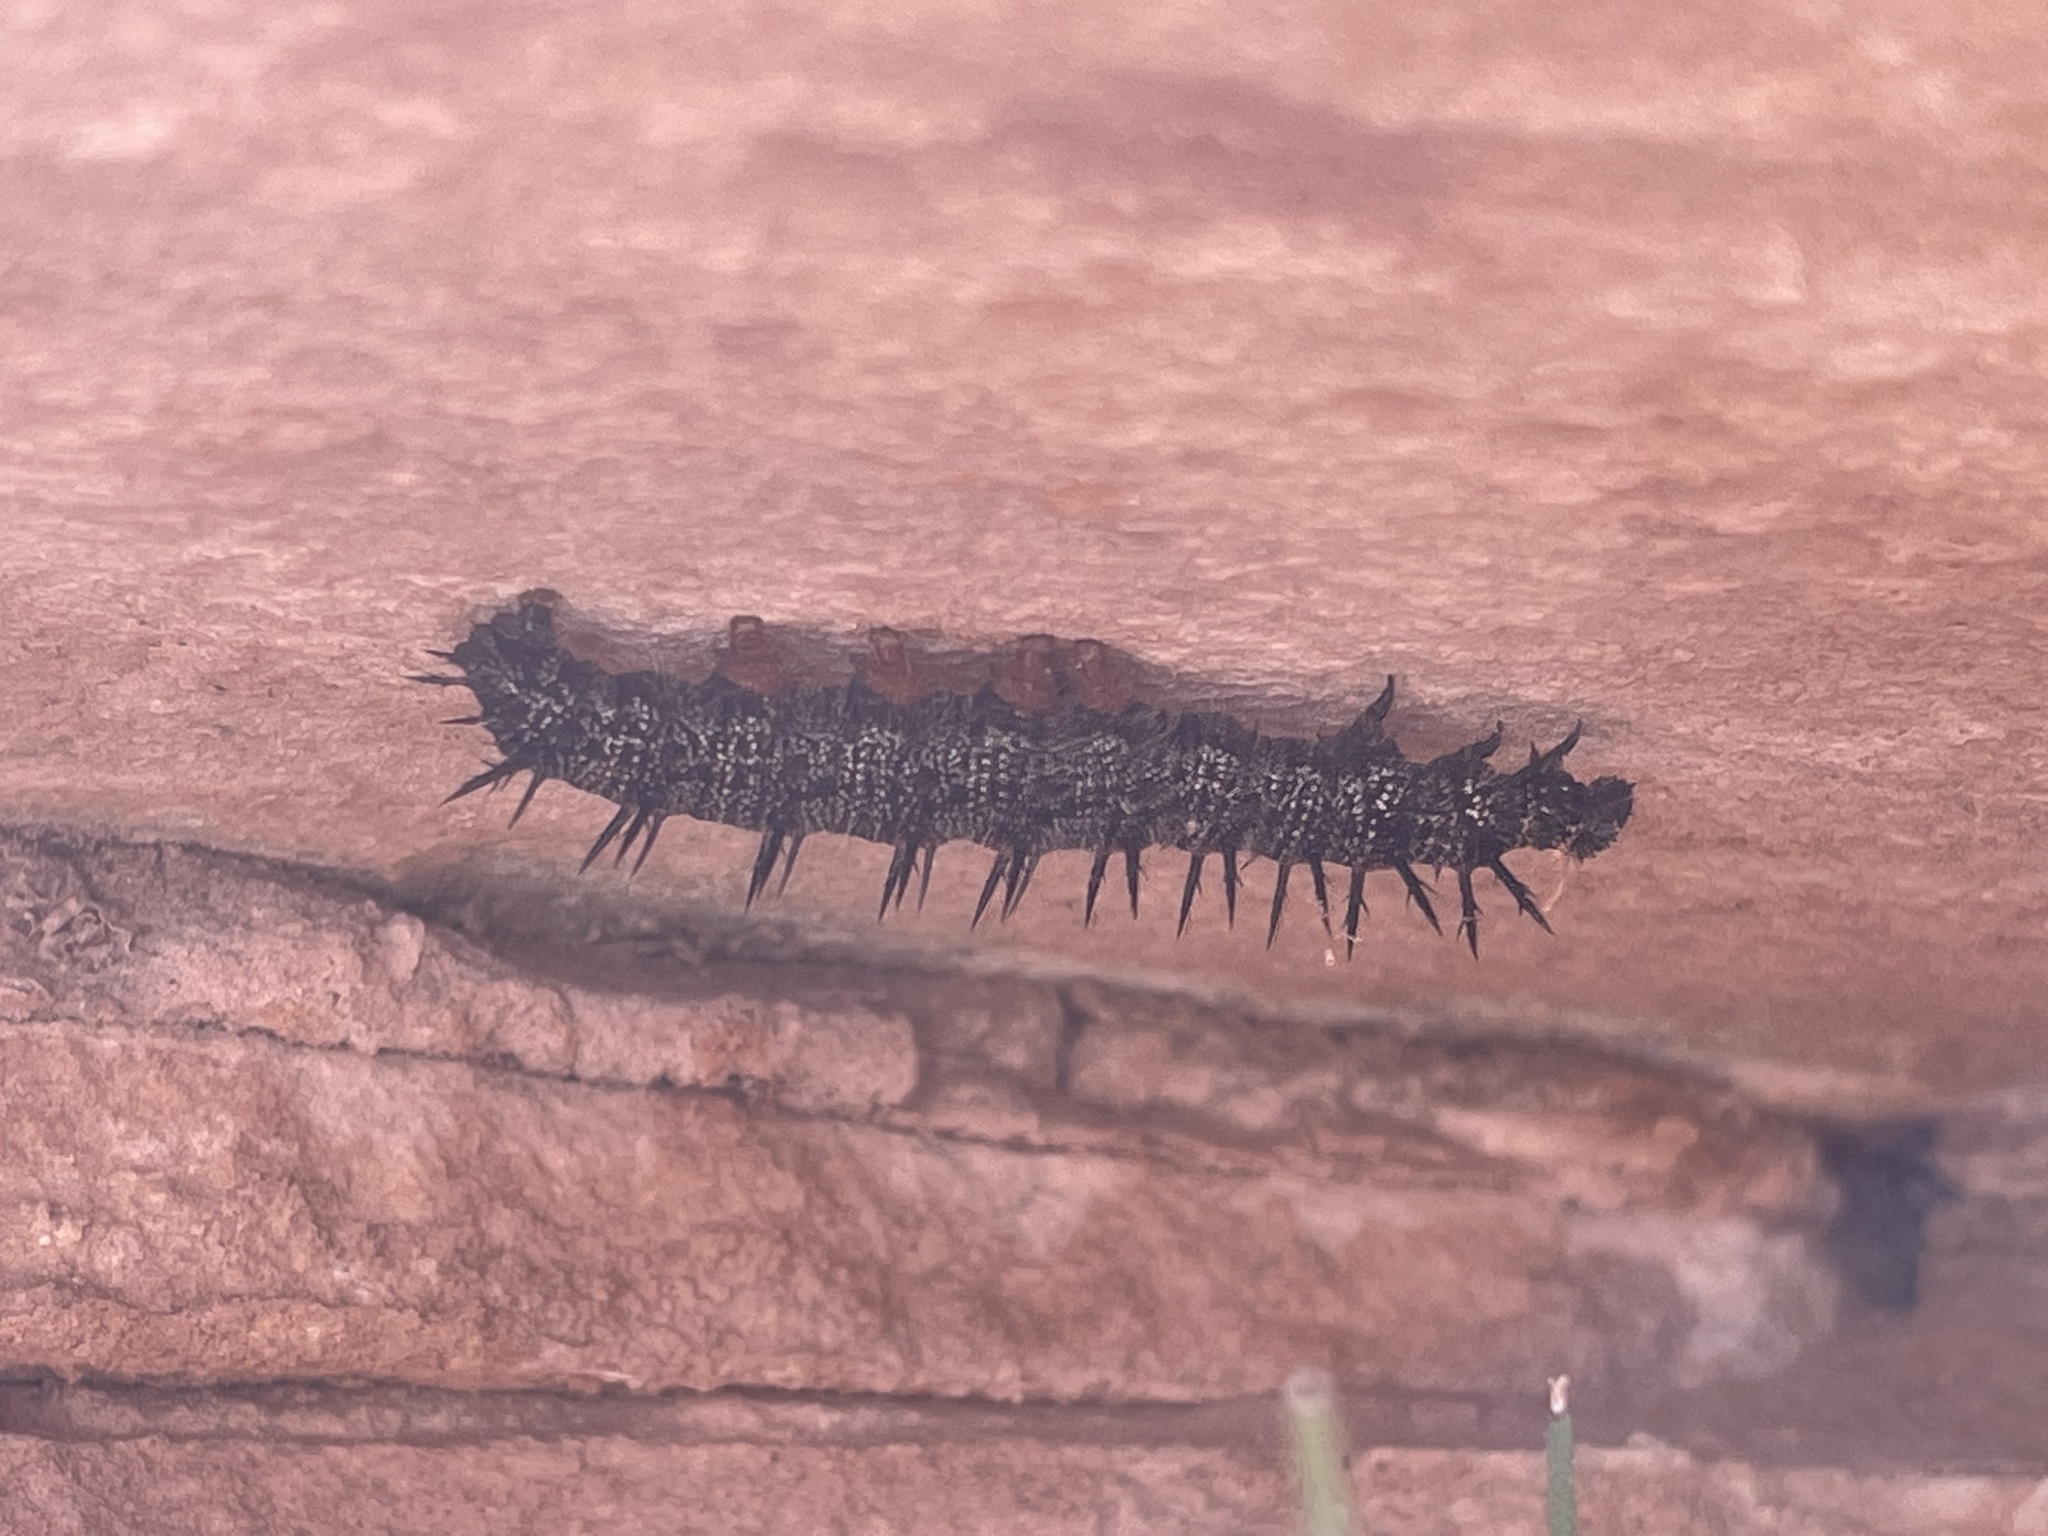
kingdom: Animalia
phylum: Arthropoda
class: Insecta
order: Lepidoptera
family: Nymphalidae
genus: Nymphalis
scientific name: Nymphalis antiopa
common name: Camberwell beauty
